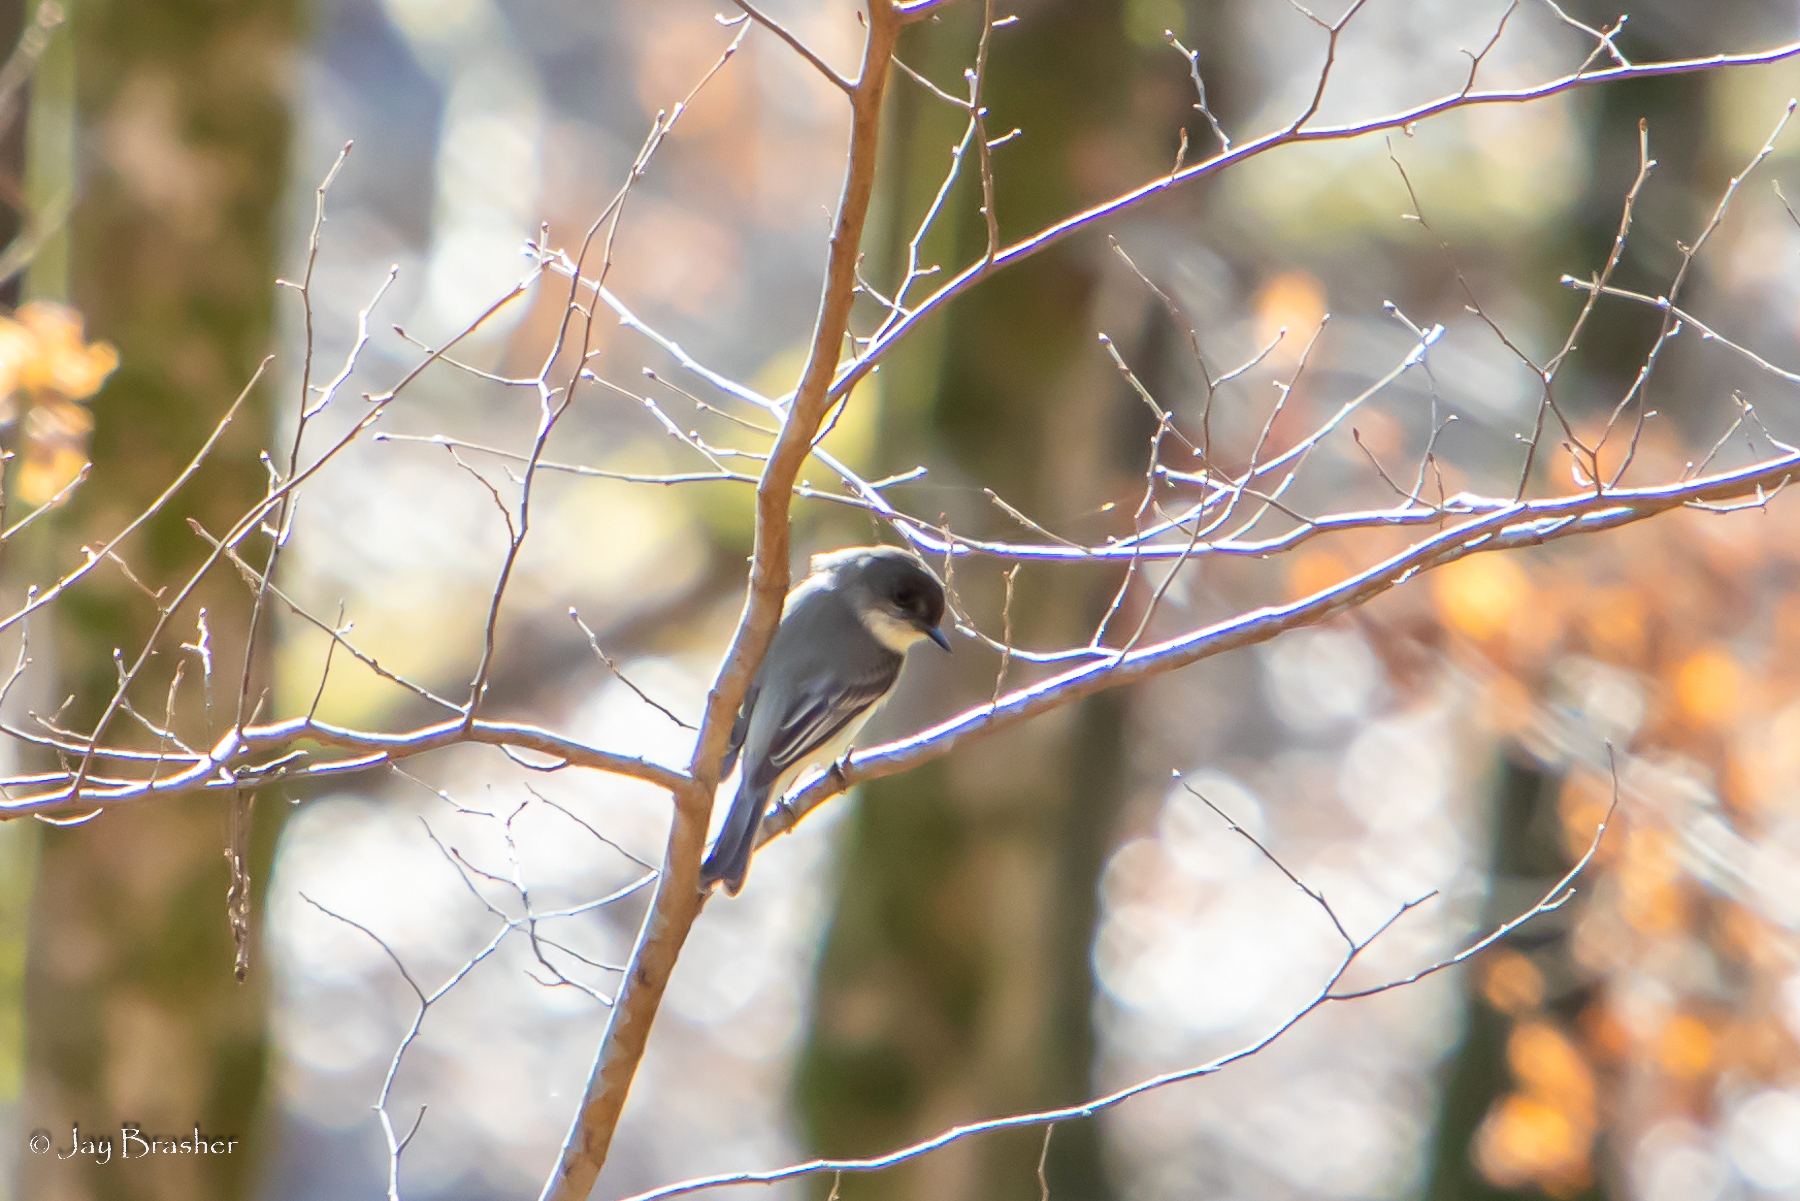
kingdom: Animalia
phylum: Chordata
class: Aves
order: Passeriformes
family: Tyrannidae
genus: Sayornis
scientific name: Sayornis phoebe
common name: Eastern phoebe
